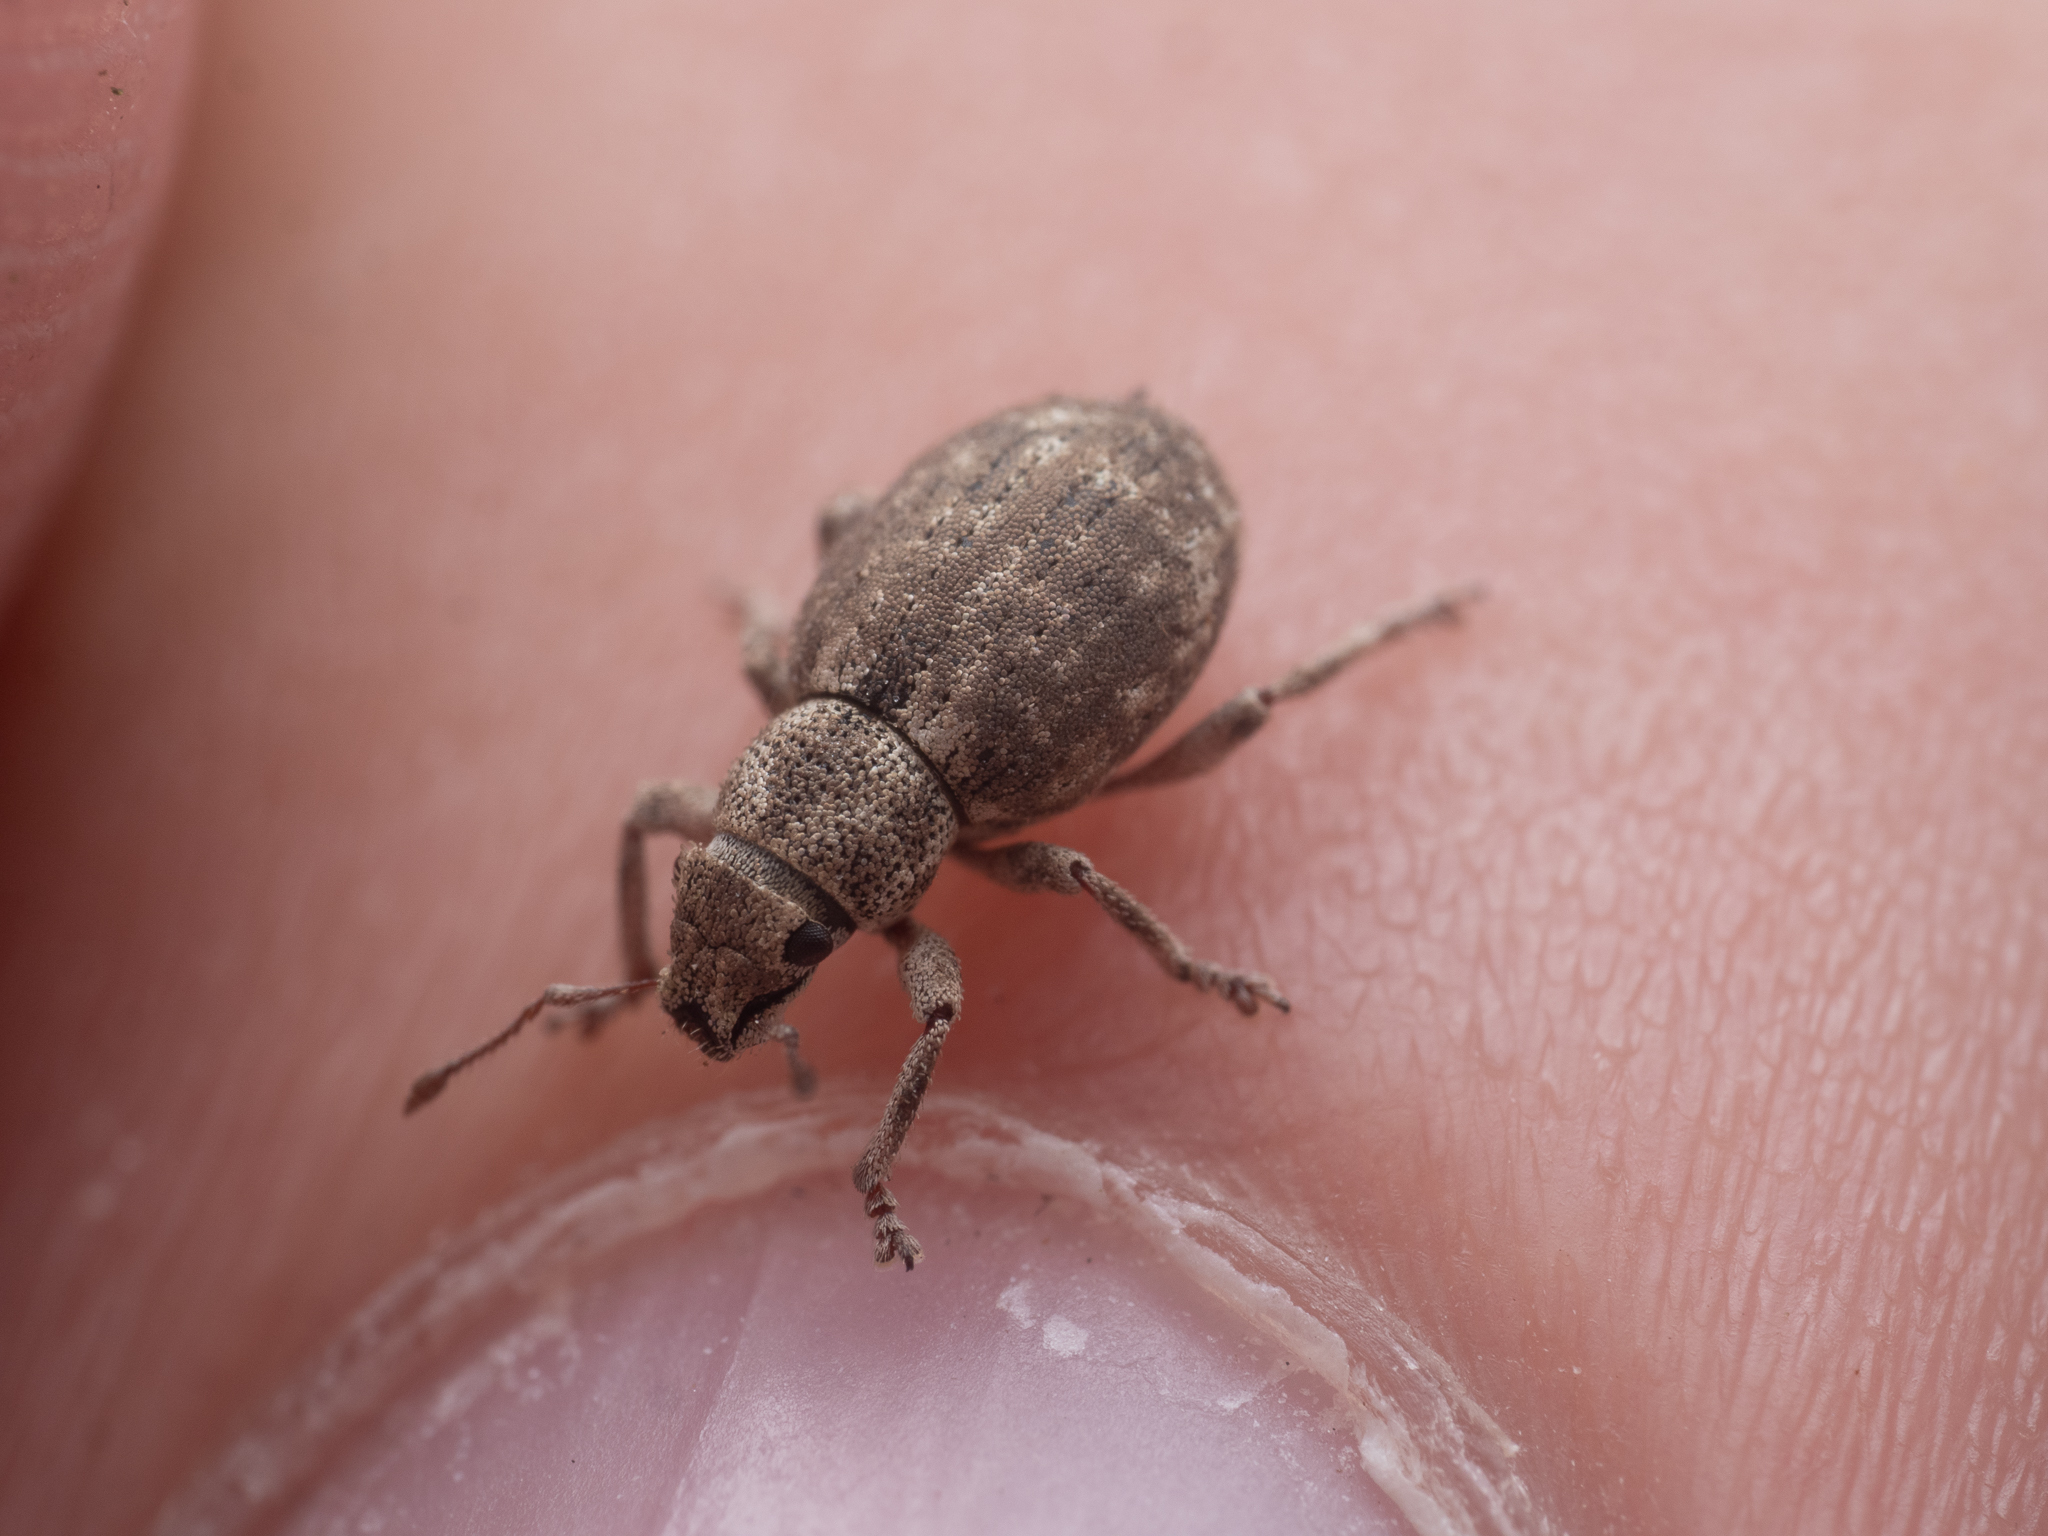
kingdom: Animalia
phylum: Arthropoda
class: Insecta
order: Coleoptera
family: Curculionidae
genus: Strophosoma
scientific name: Strophosoma capitatum
